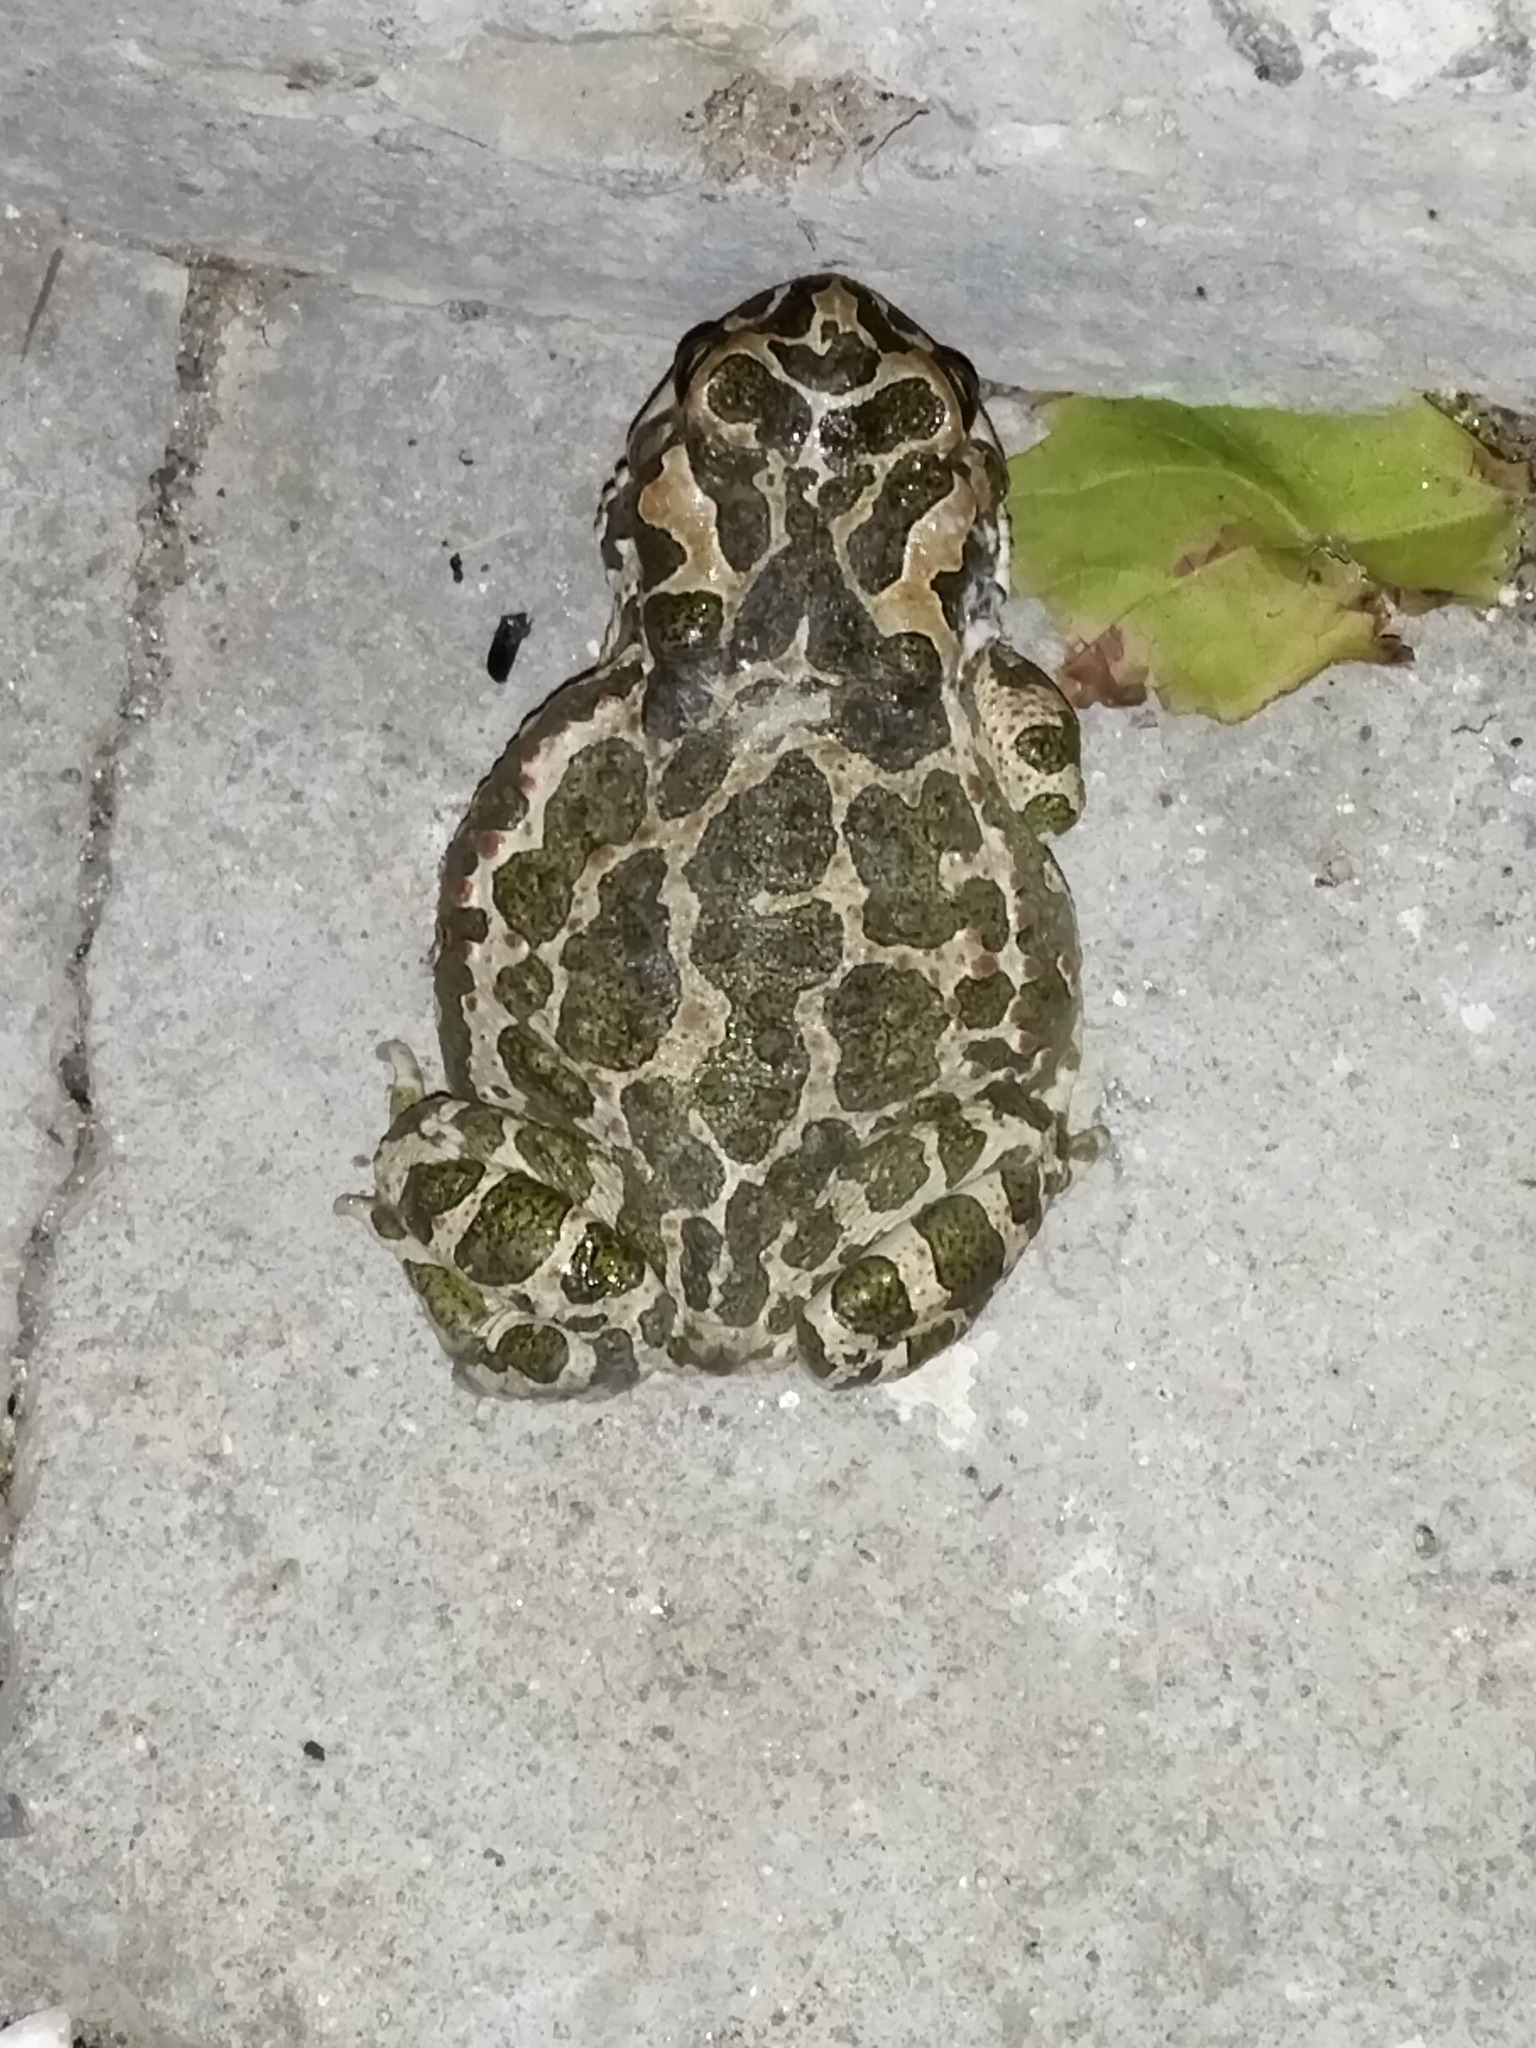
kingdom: Animalia
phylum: Chordata
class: Amphibia
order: Anura
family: Bufonidae
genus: Bufotes
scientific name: Bufotes viridis
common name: European green toad
